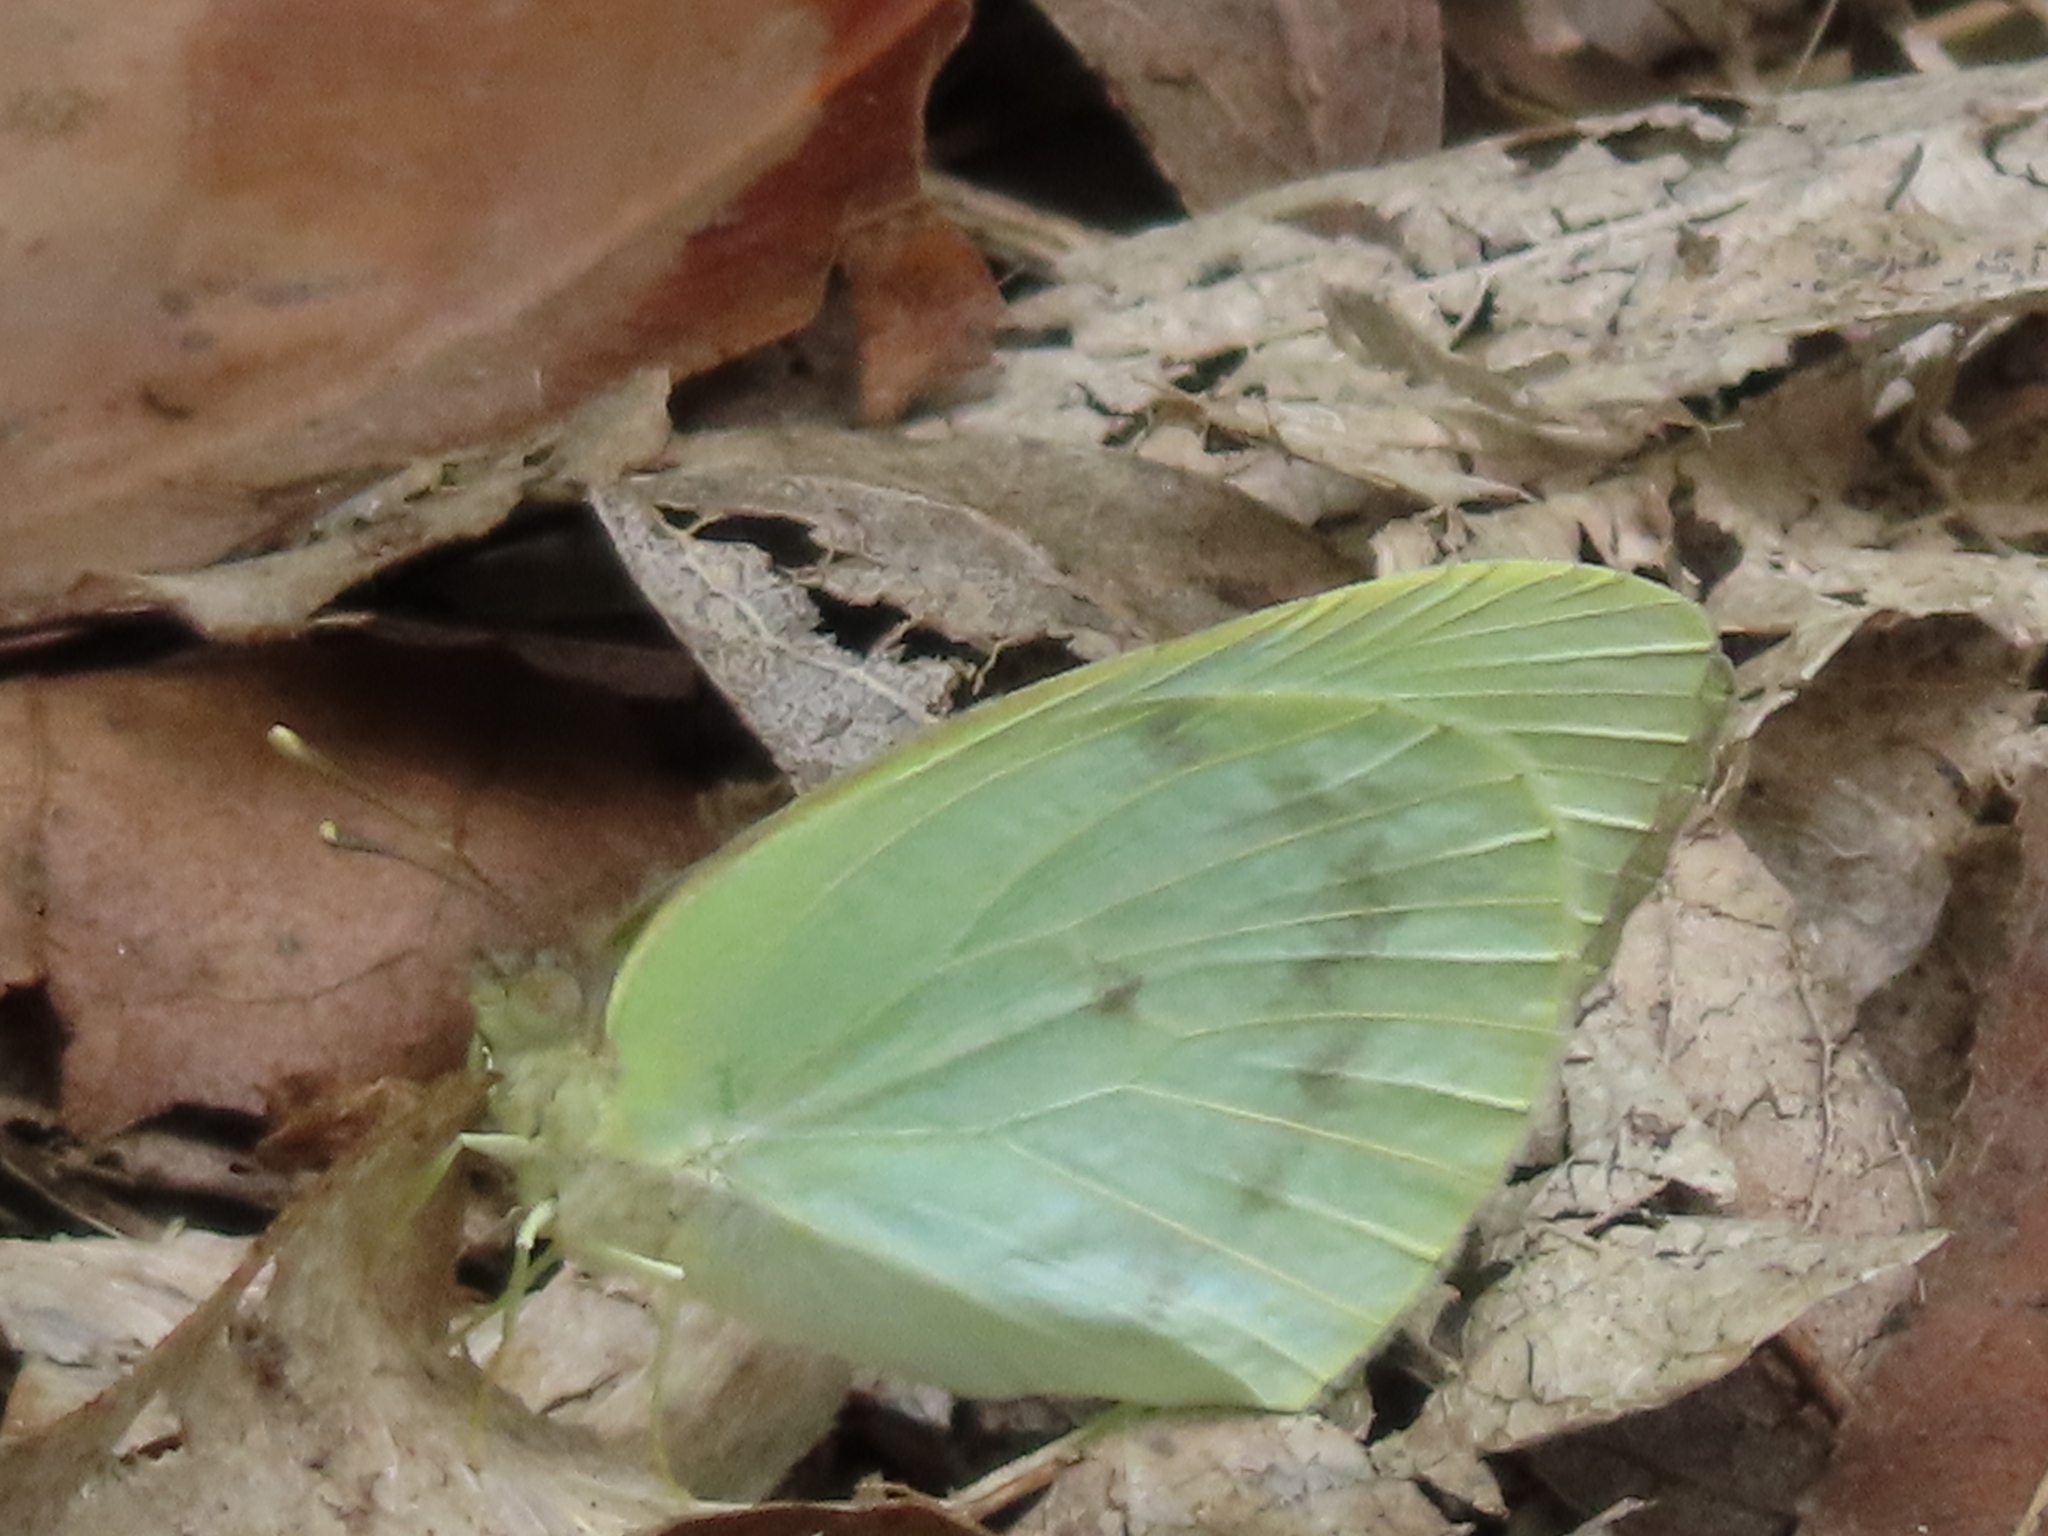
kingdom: Animalia
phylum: Arthropoda
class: Insecta
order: Lepidoptera
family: Pieridae
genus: Kricogonia
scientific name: Kricogonia lyside
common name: Guayacan sulphur,
